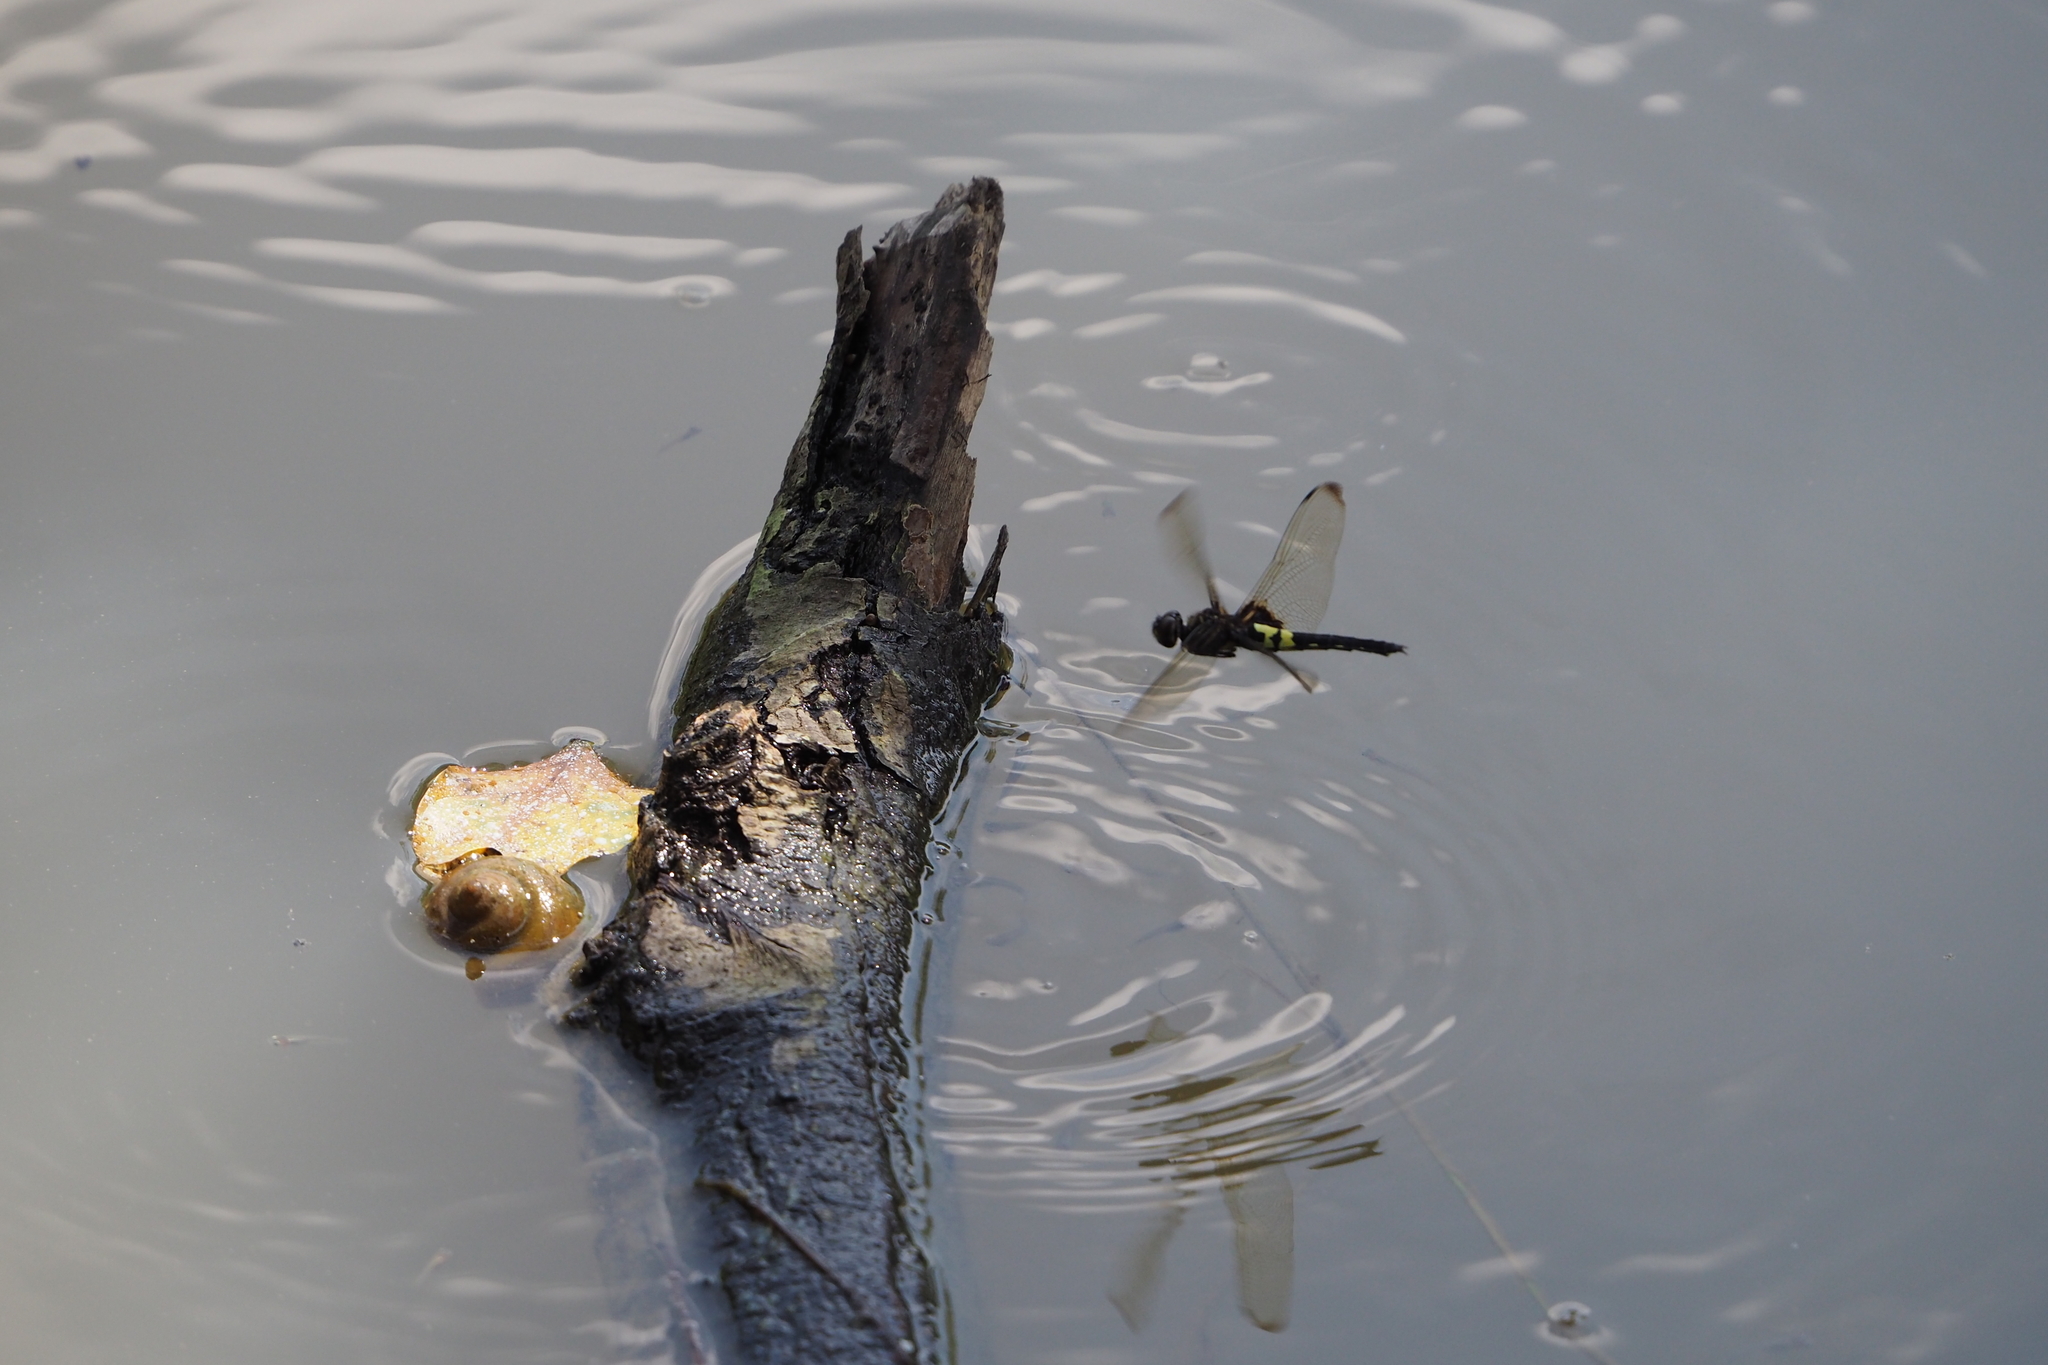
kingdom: Animalia
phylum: Arthropoda
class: Insecta
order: Odonata
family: Libellulidae
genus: Pseudothemis
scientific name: Pseudothemis zonata
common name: Pied skimmer
